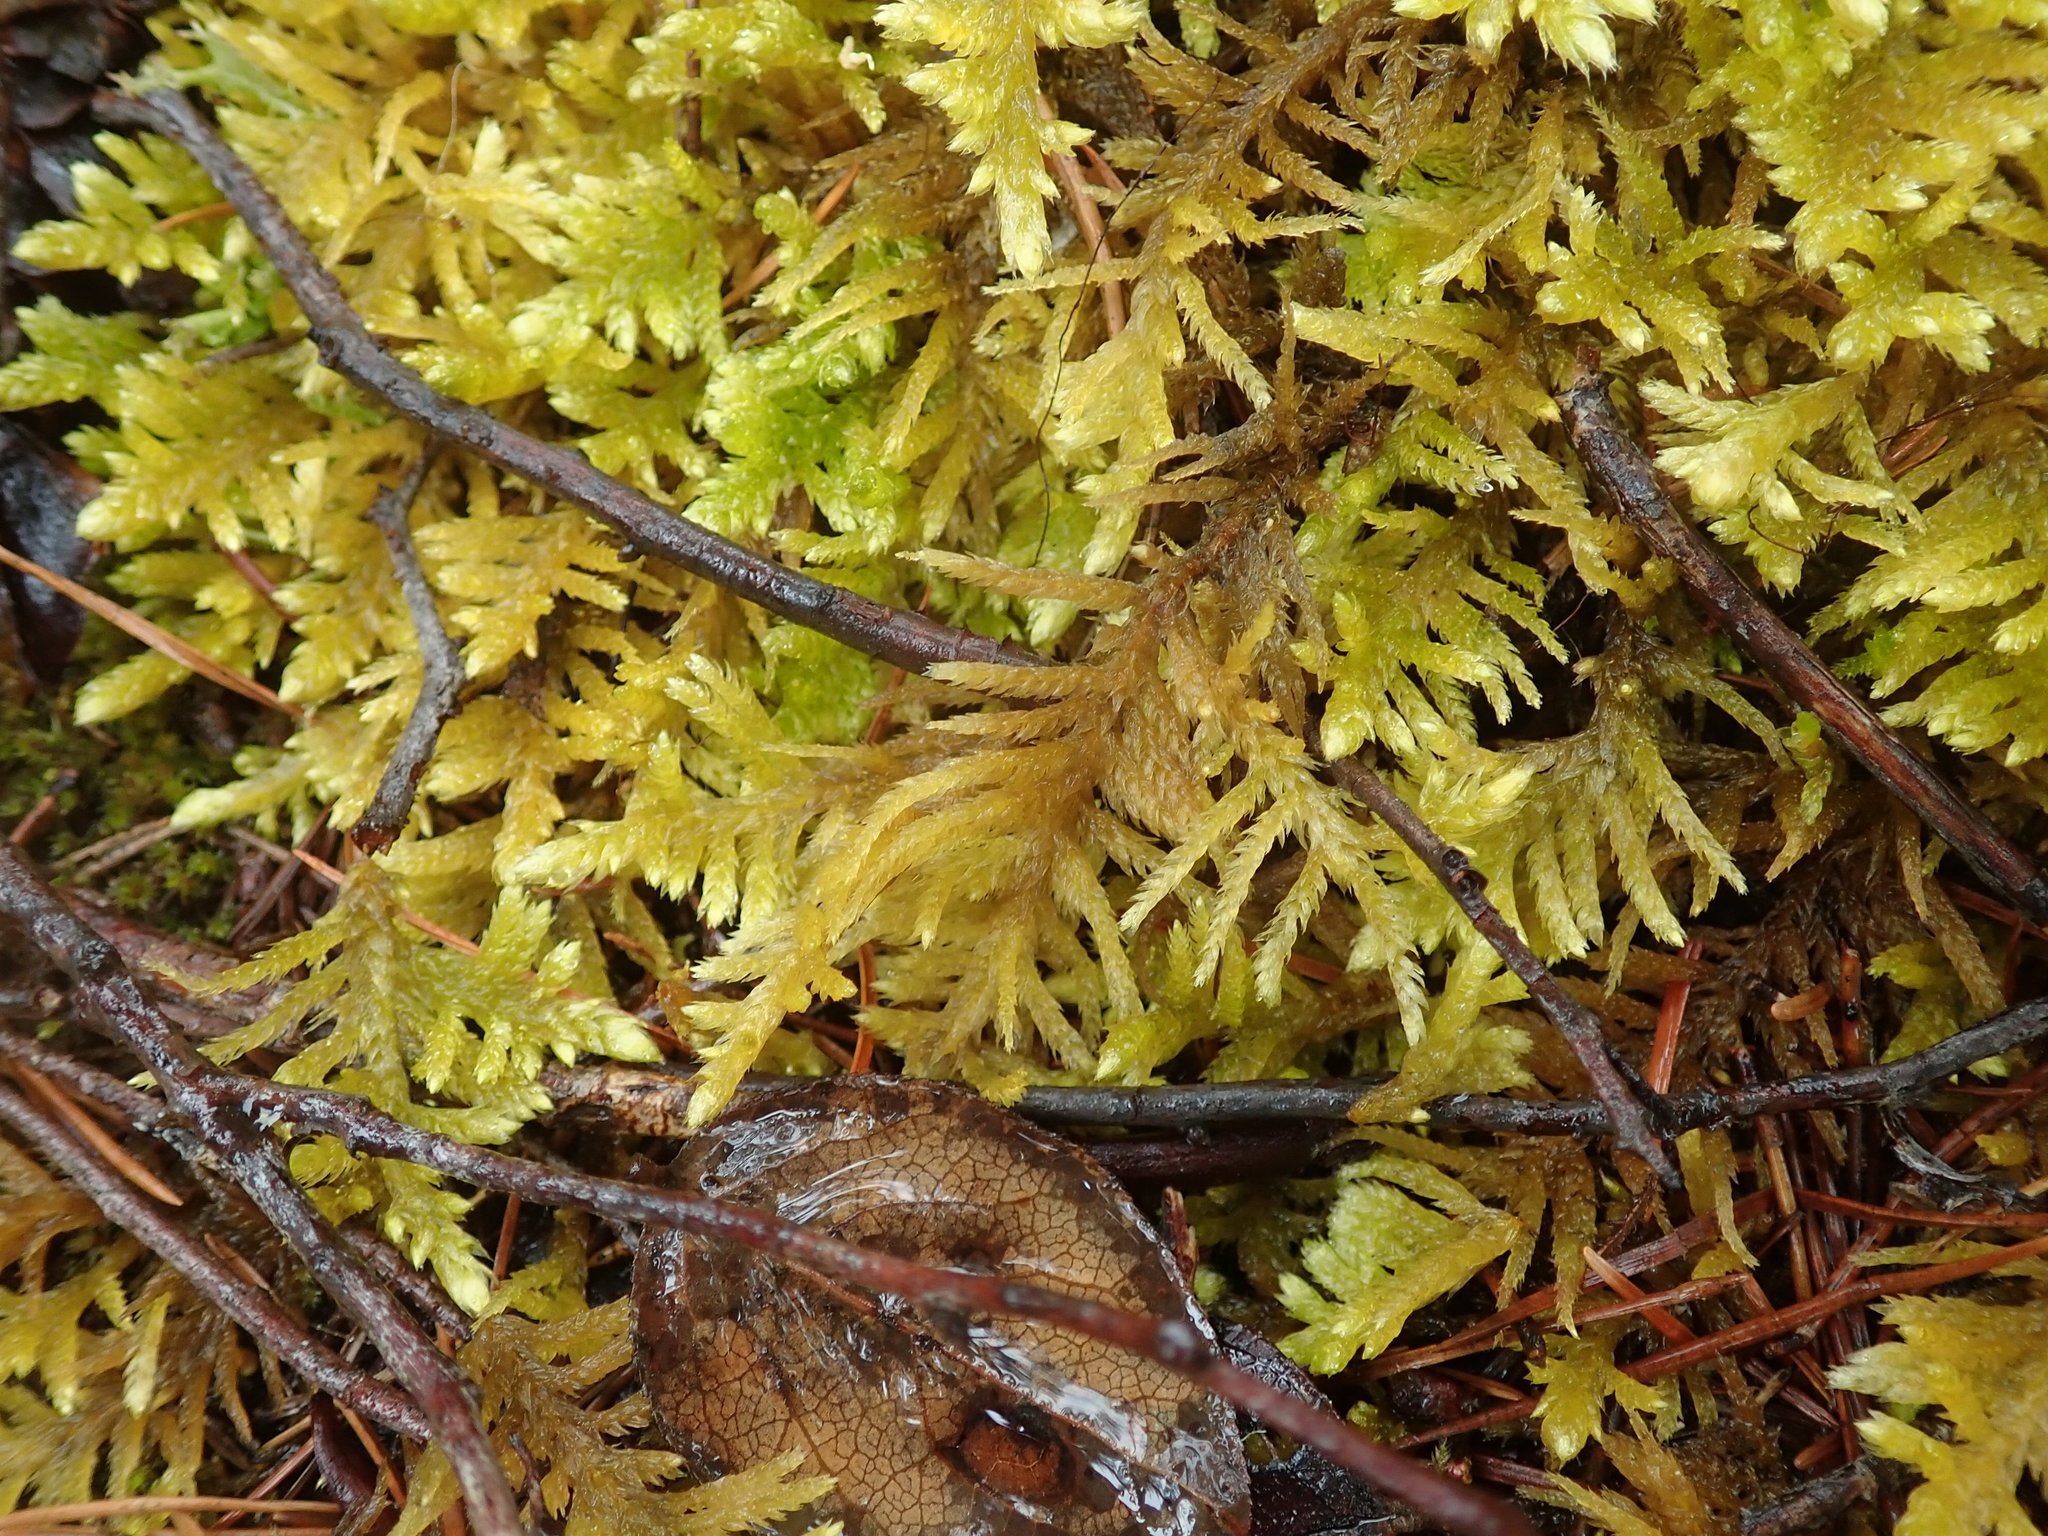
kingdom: Plantae
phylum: Bryophyta
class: Bryopsida
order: Hypnales
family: Brachytheciaceae
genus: Homalothecium
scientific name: Homalothecium megaptilum
